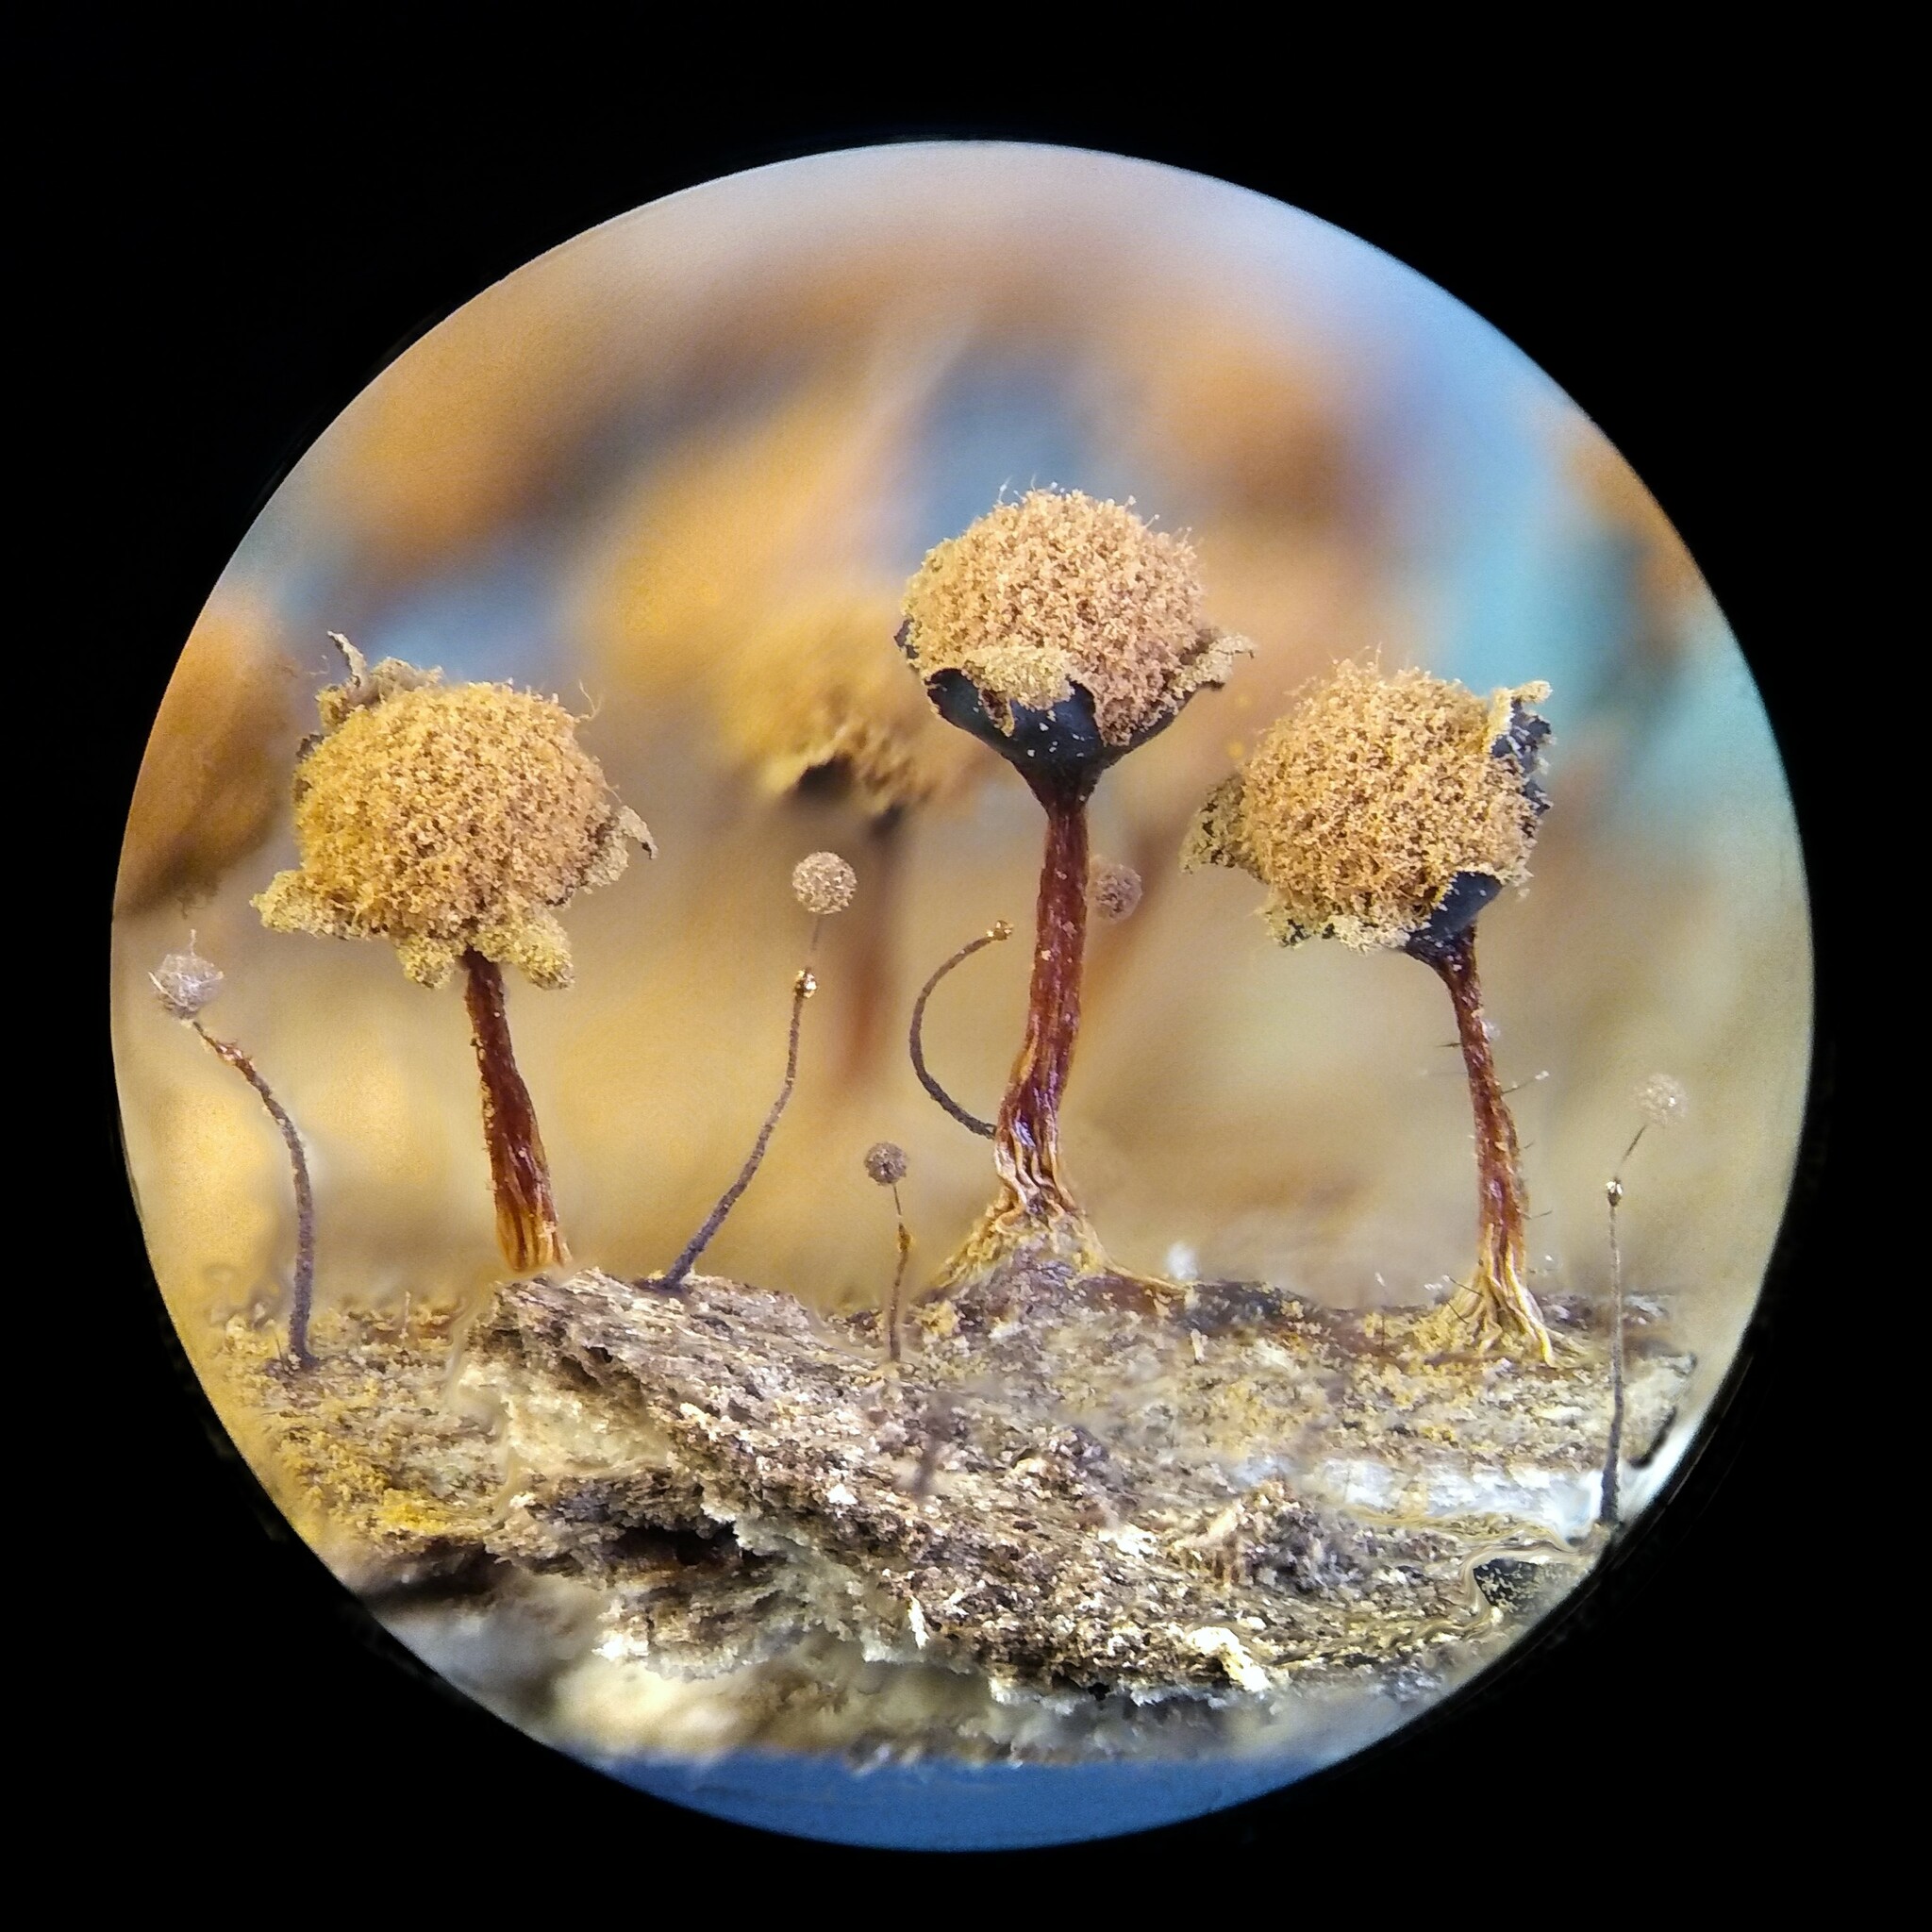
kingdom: Protozoa
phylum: Mycetozoa
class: Myxomycetes
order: Trichiales
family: Trichiaceae
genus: Metatrichia
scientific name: Metatrichia floriformis
